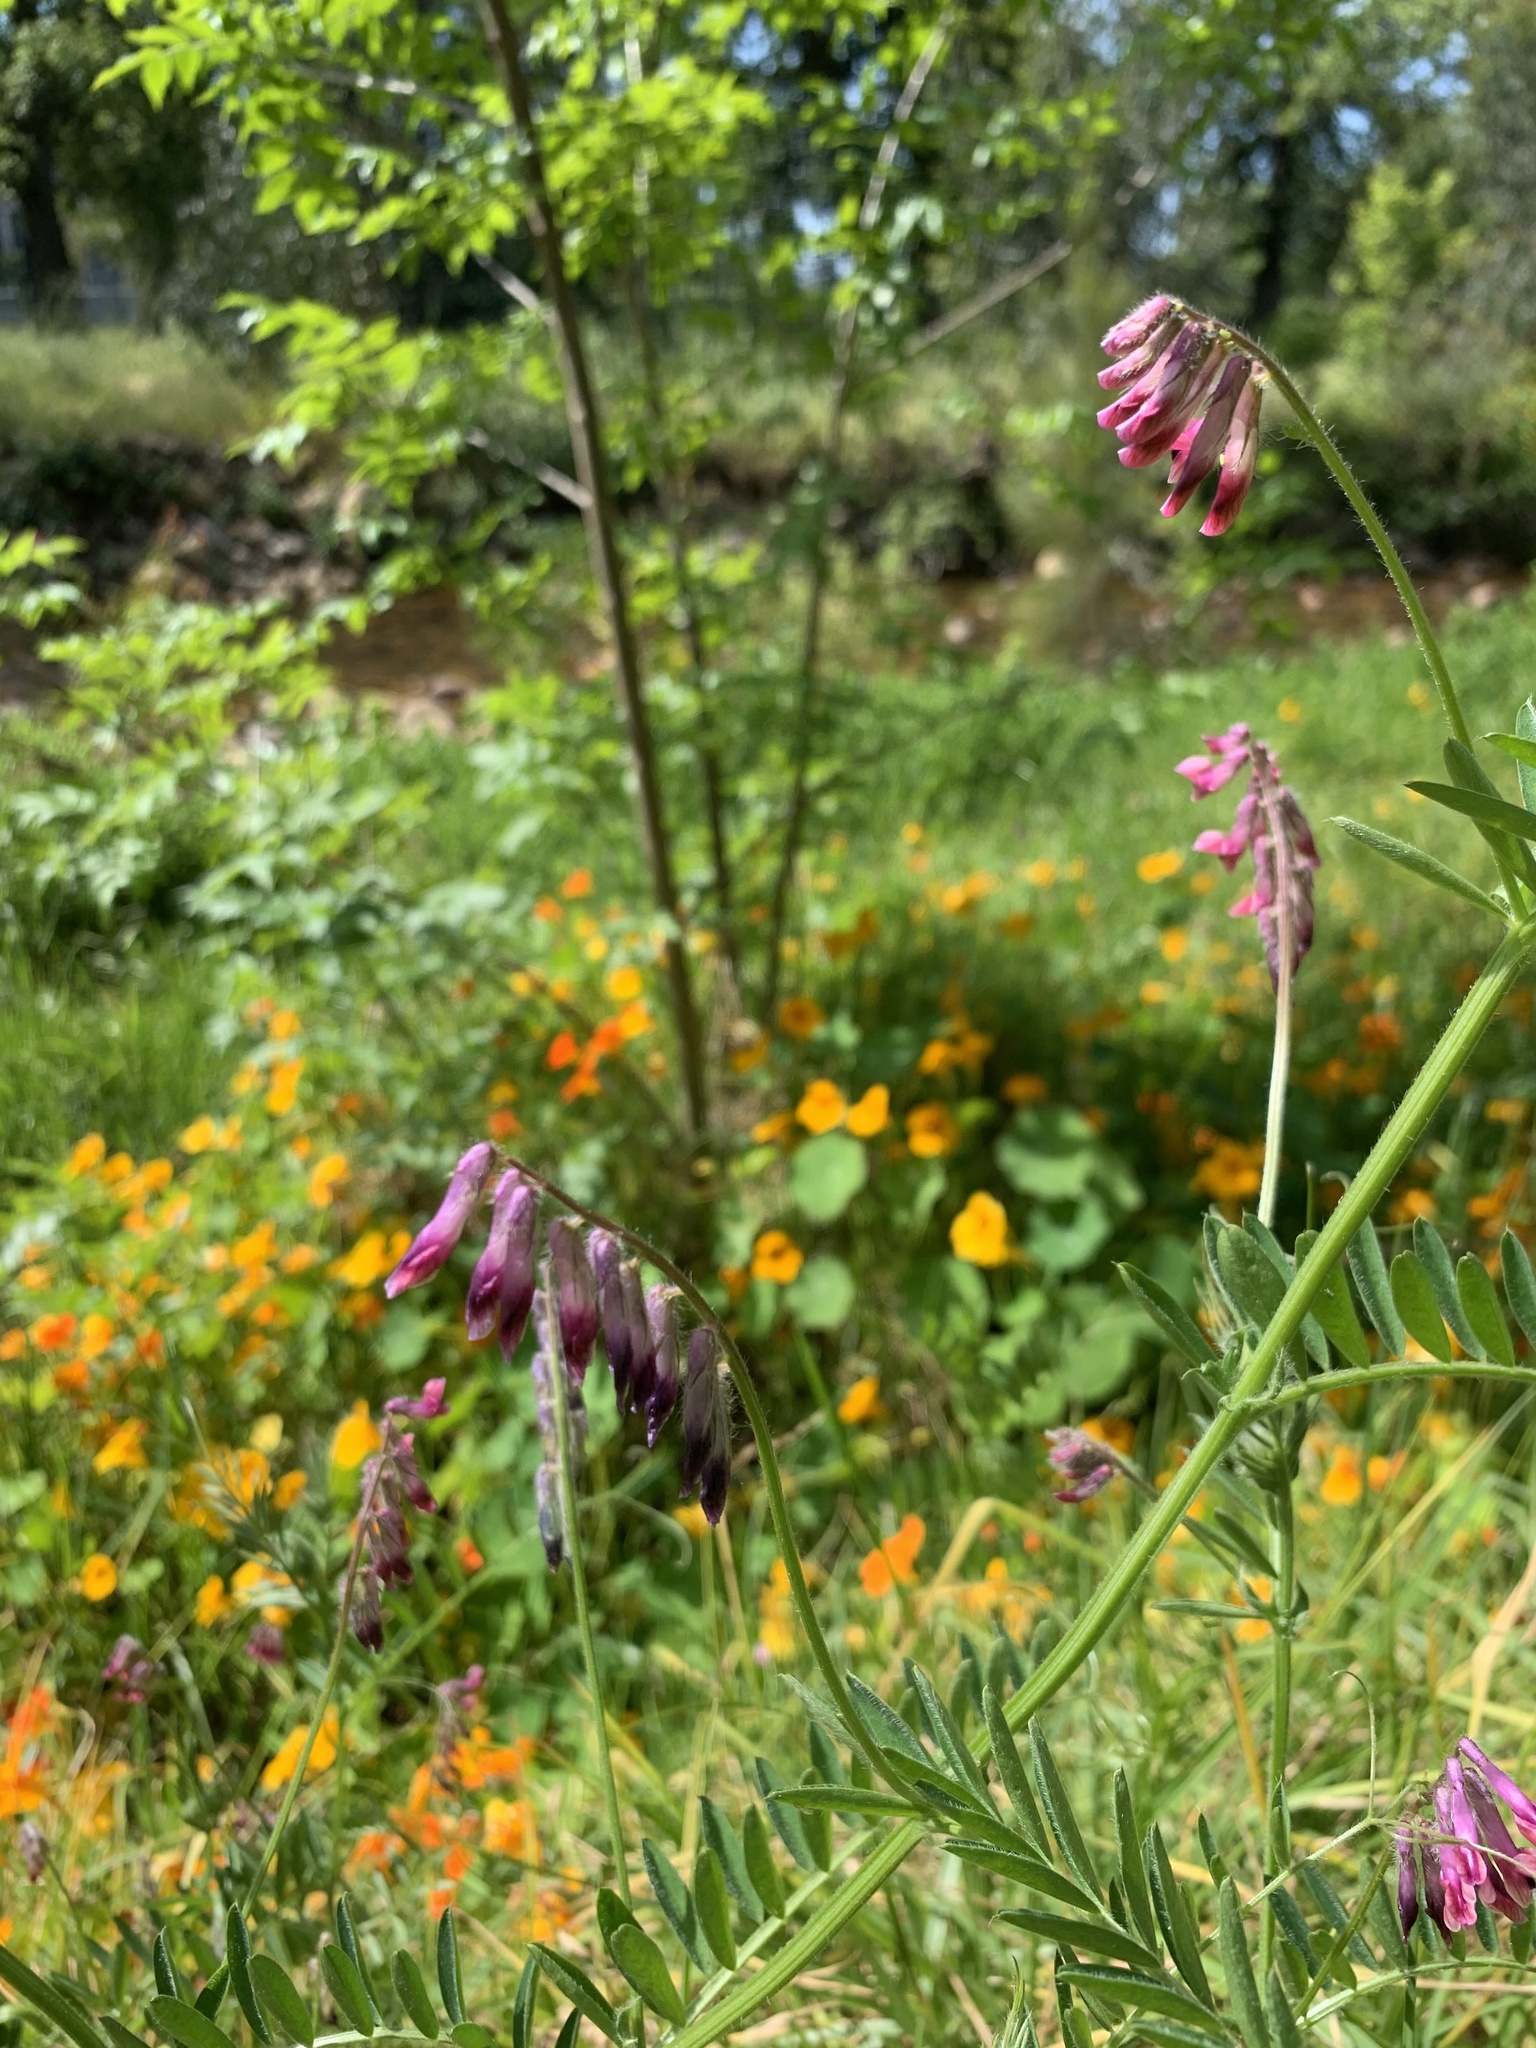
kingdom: Plantae
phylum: Tracheophyta
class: Magnoliopsida
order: Fabales
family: Fabaceae
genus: Vicia
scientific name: Vicia benghalensis
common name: Purple vetch
